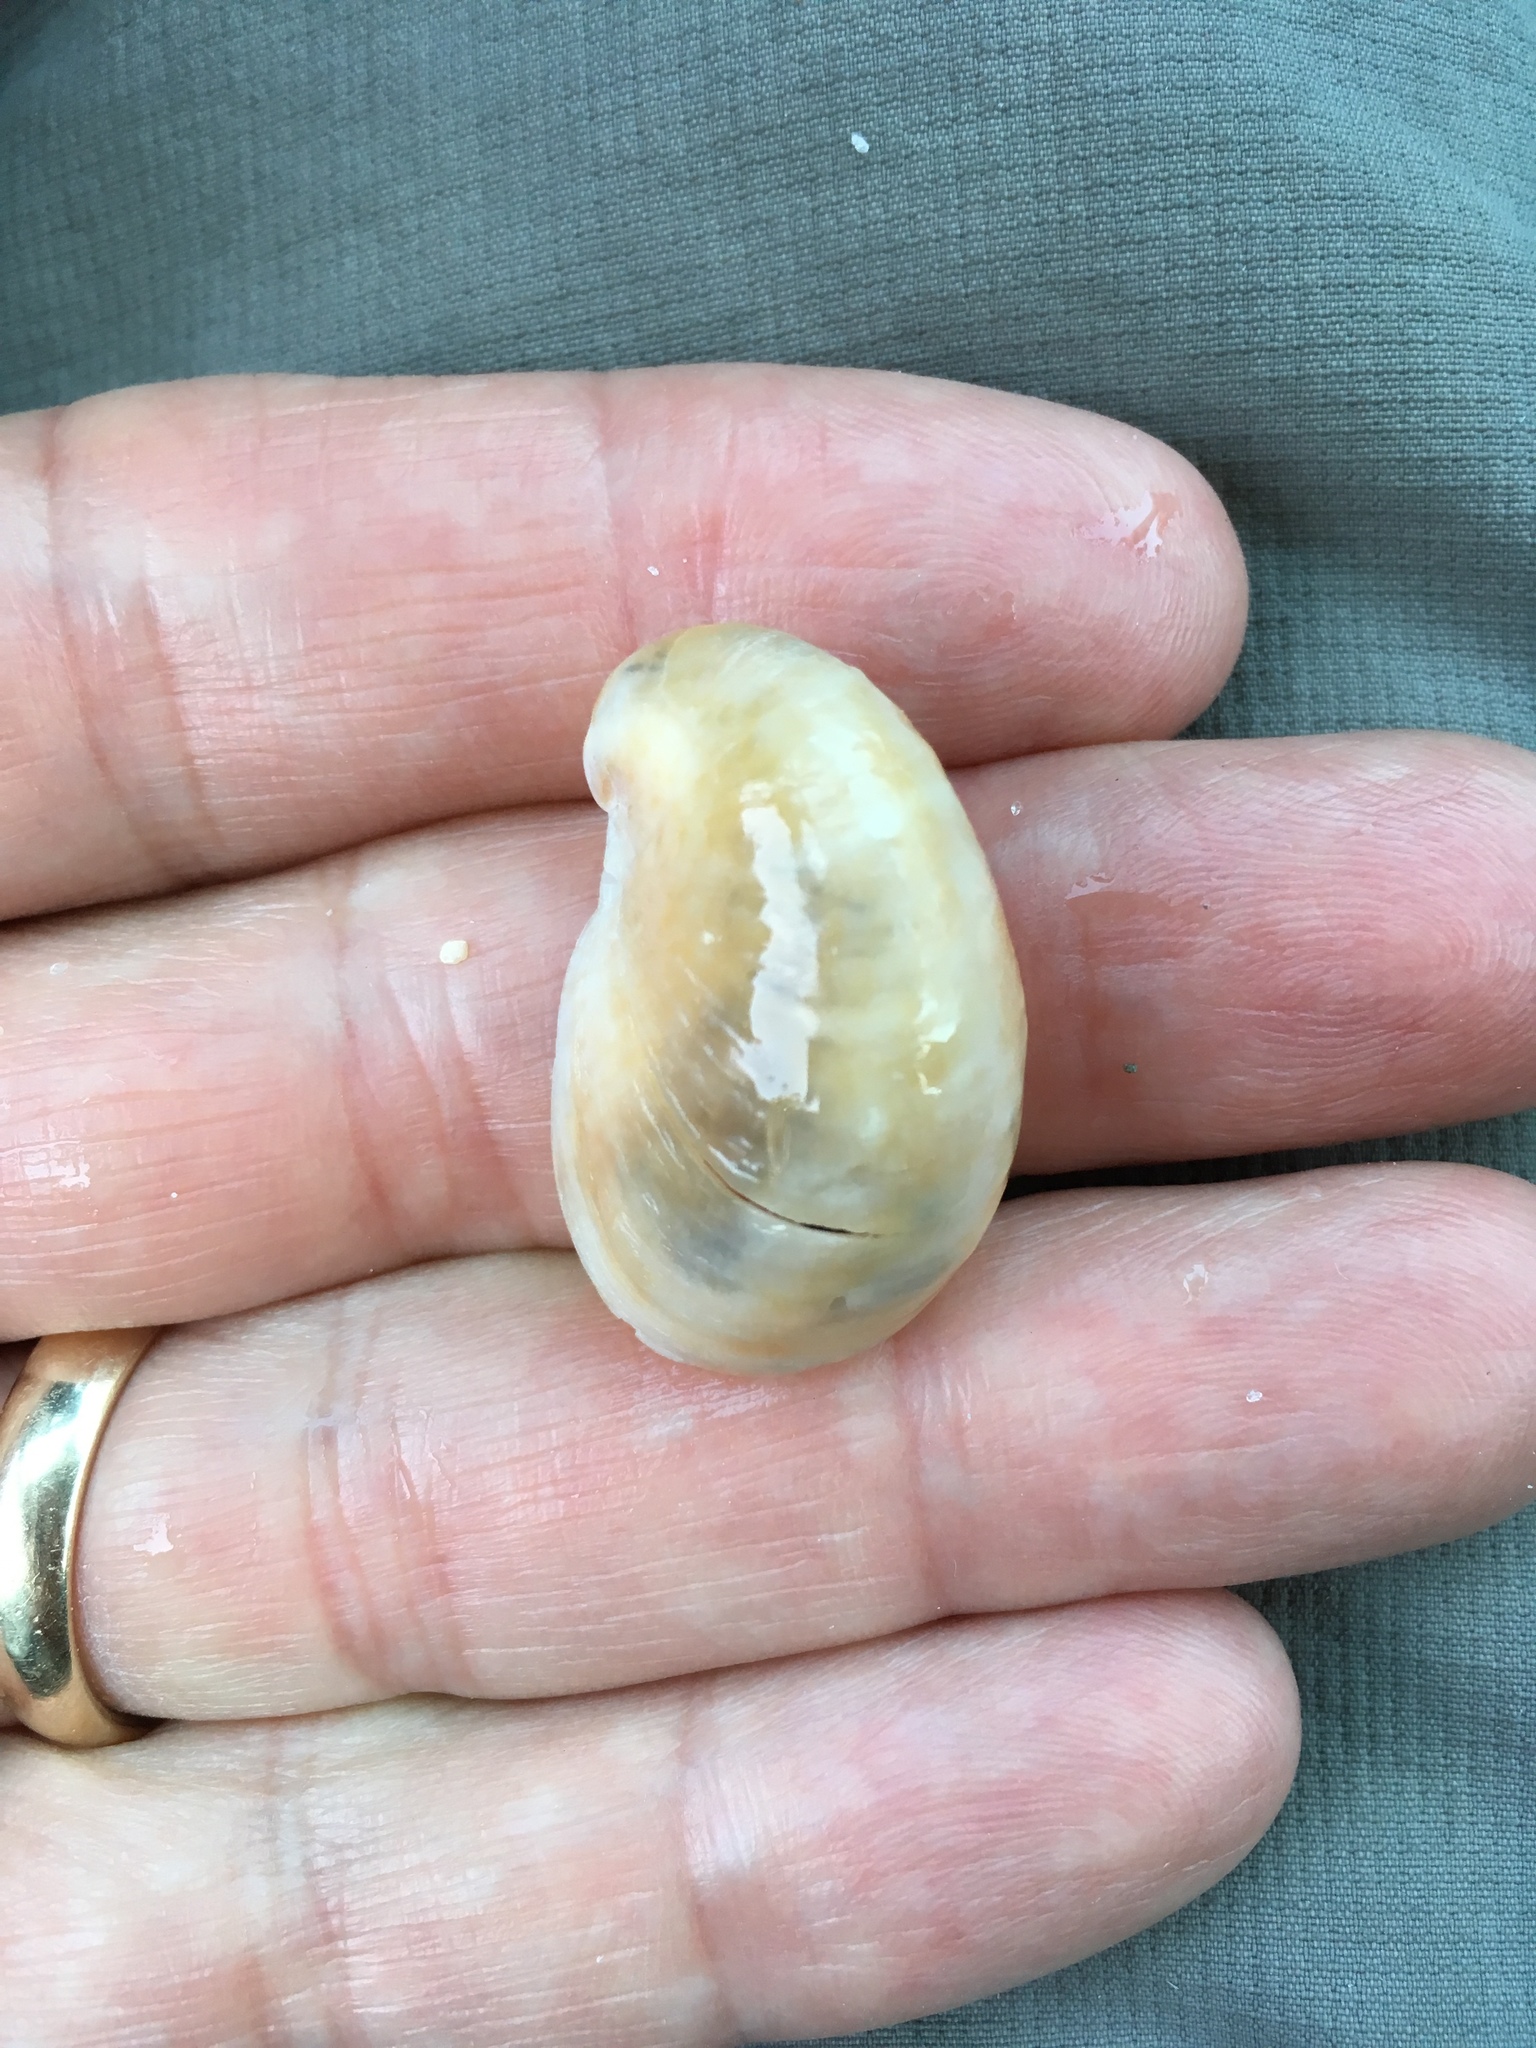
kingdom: Animalia
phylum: Mollusca
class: Gastropoda
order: Littorinimorpha
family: Calyptraeidae
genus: Crepidula
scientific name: Crepidula fornicata
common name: Slipper limpet
